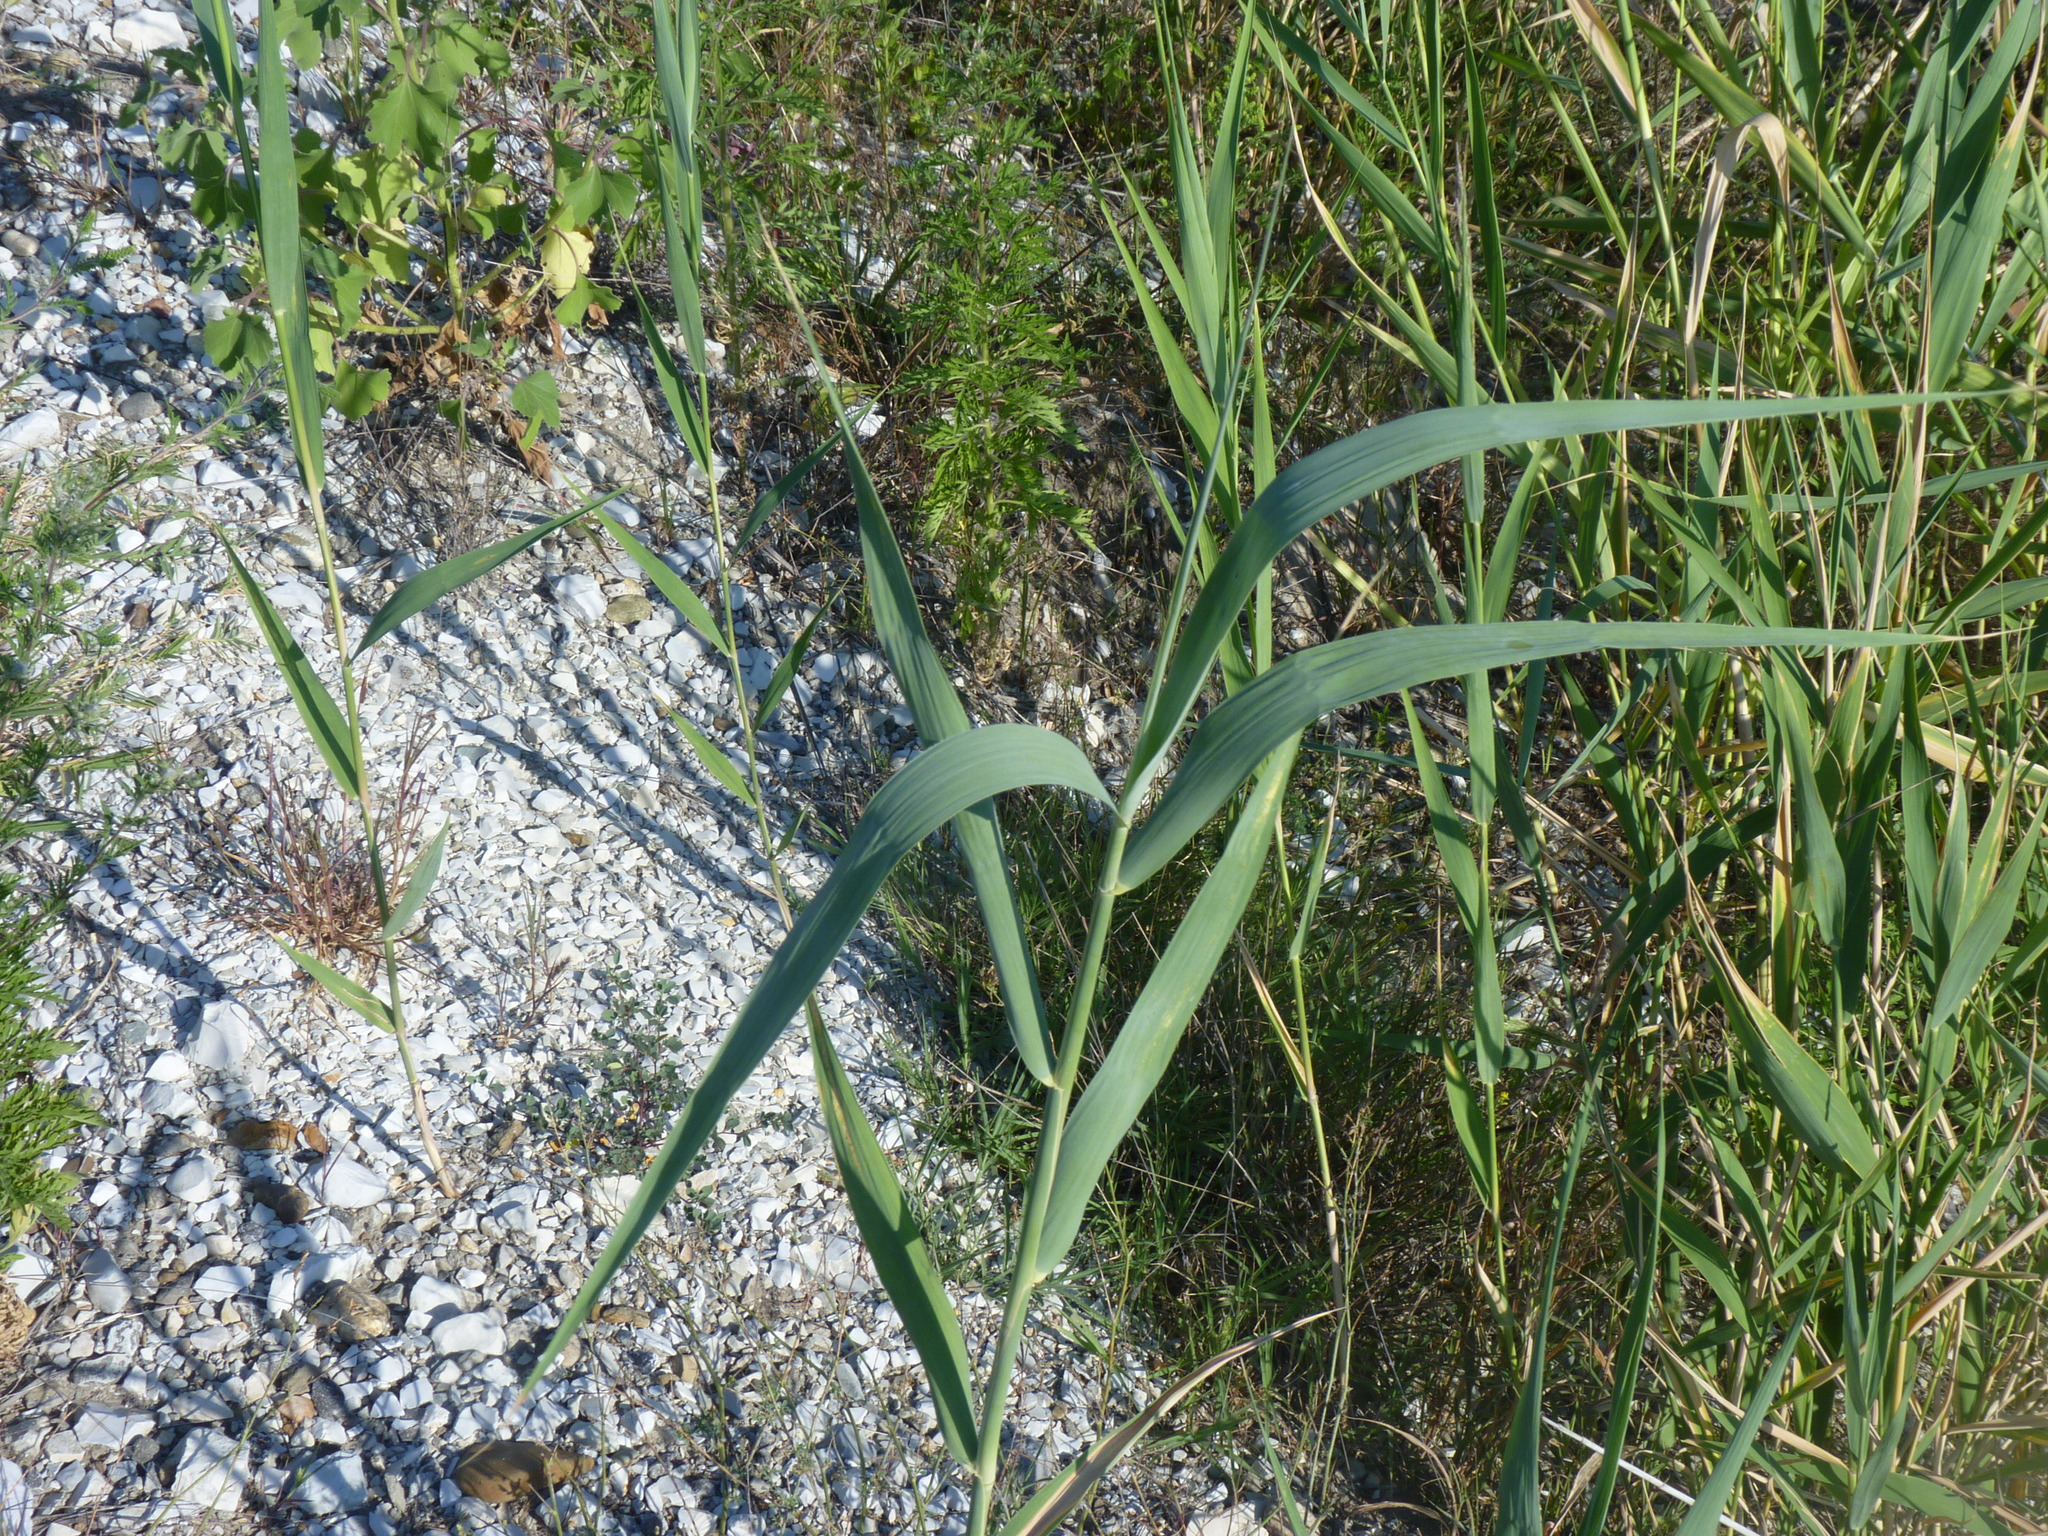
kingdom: Plantae
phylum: Tracheophyta
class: Liliopsida
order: Poales
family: Poaceae
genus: Phragmites
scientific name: Phragmites australis
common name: Common reed
